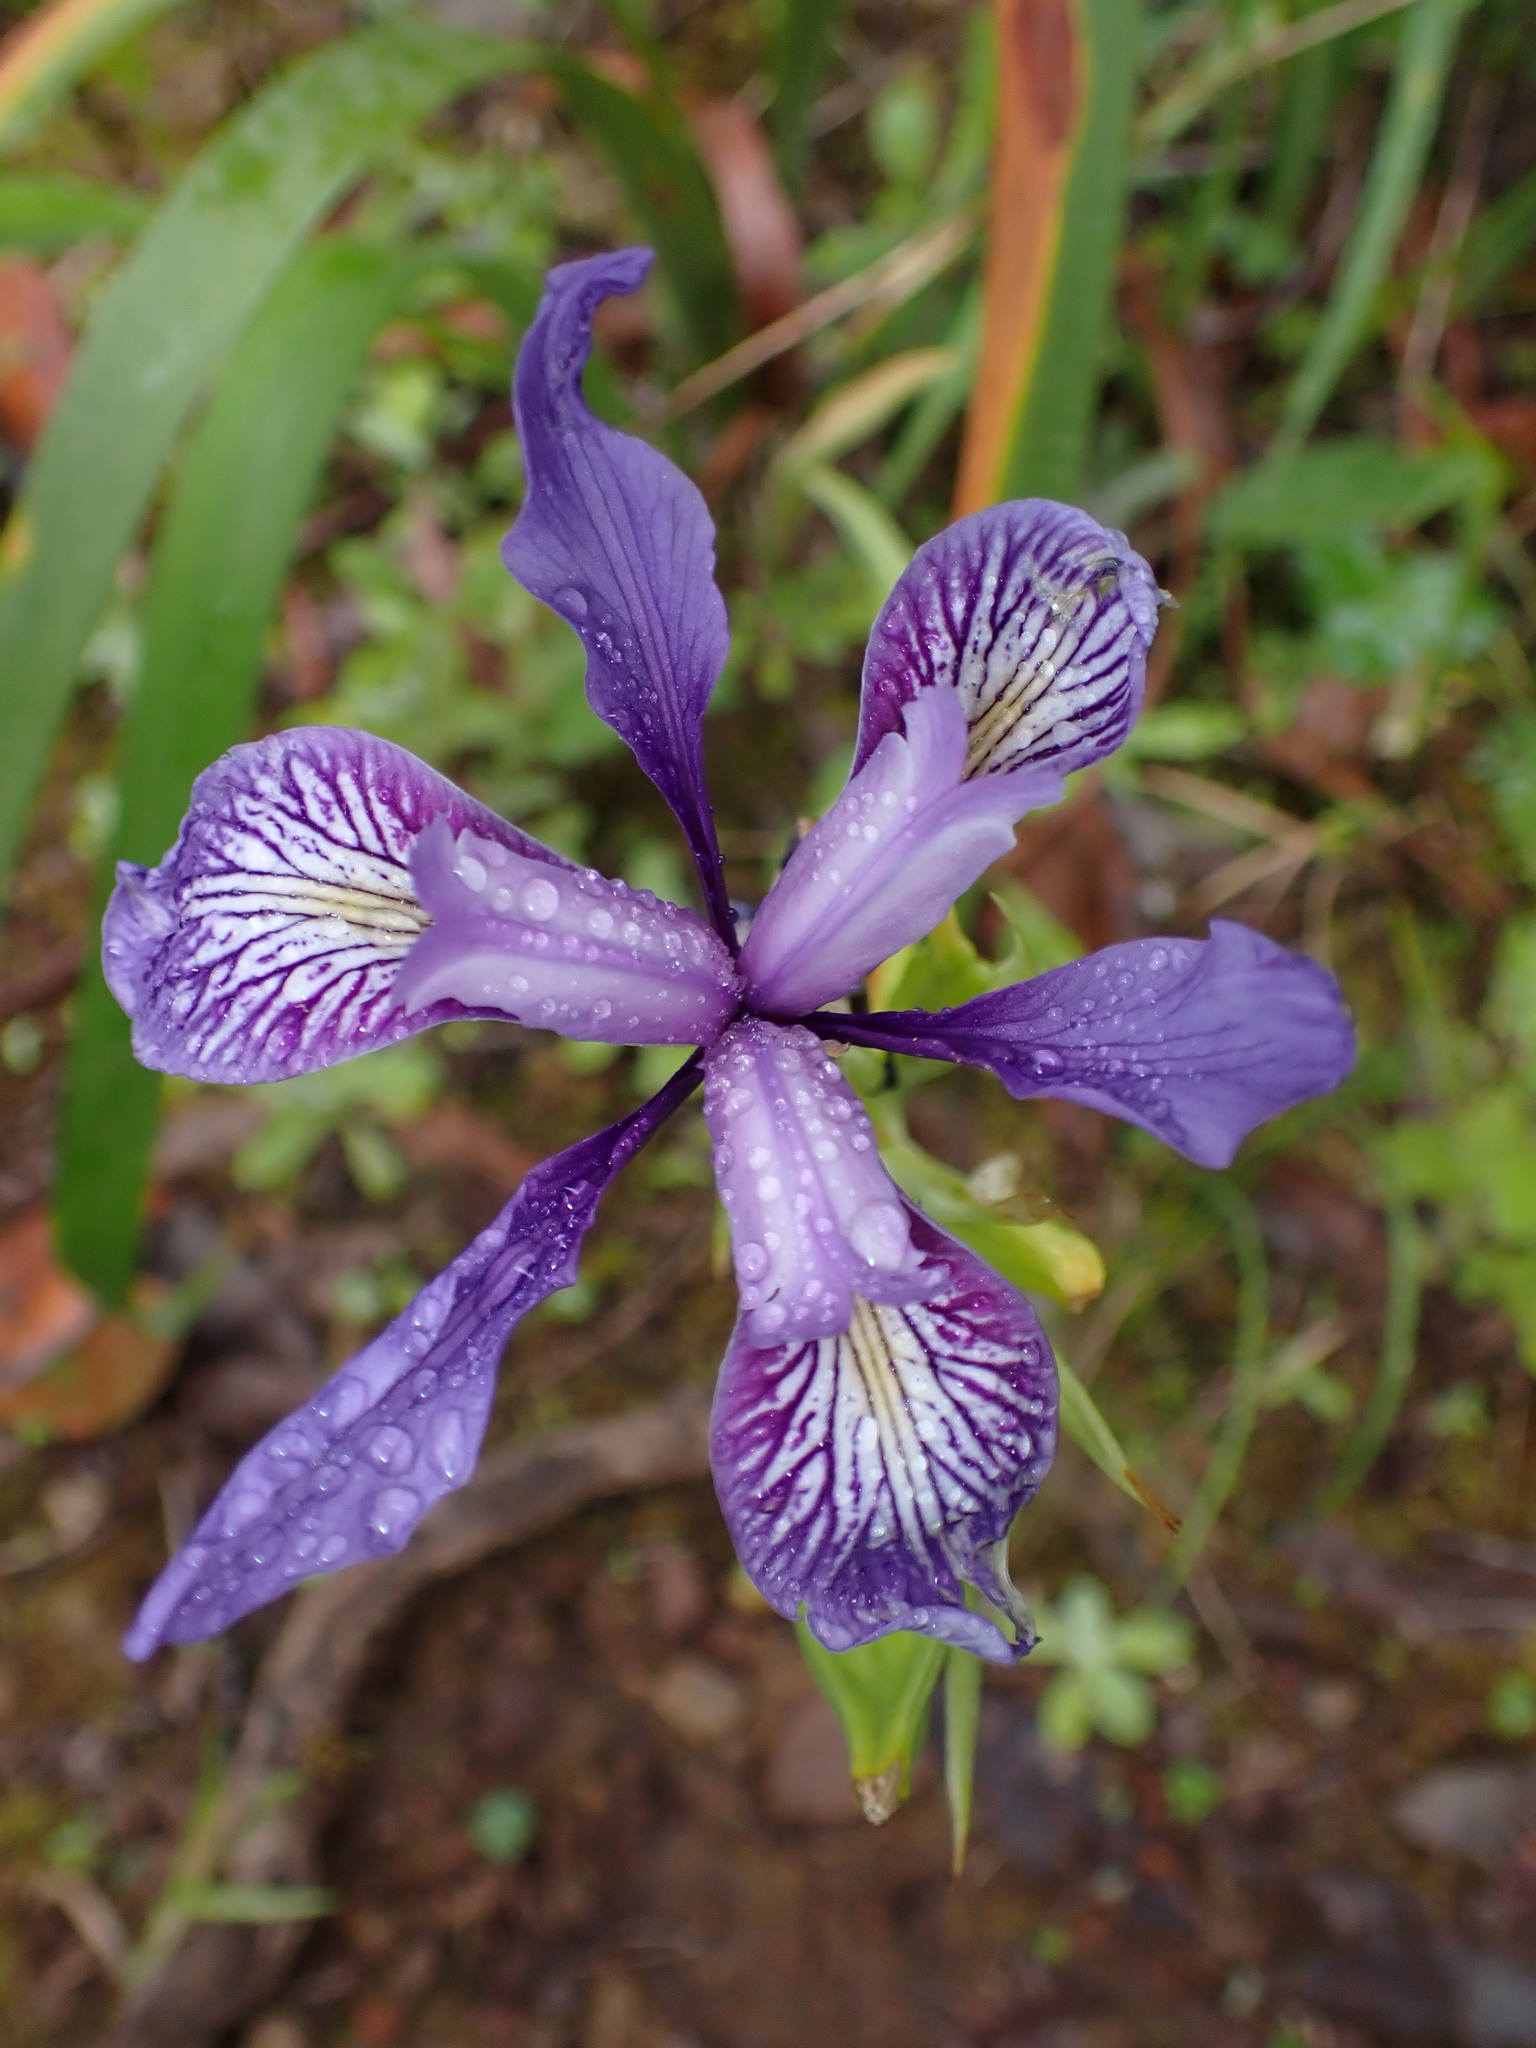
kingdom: Plantae
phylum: Tracheophyta
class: Liliopsida
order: Asparagales
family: Iridaceae
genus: Iris
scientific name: Iris douglasiana
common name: Marin iris
